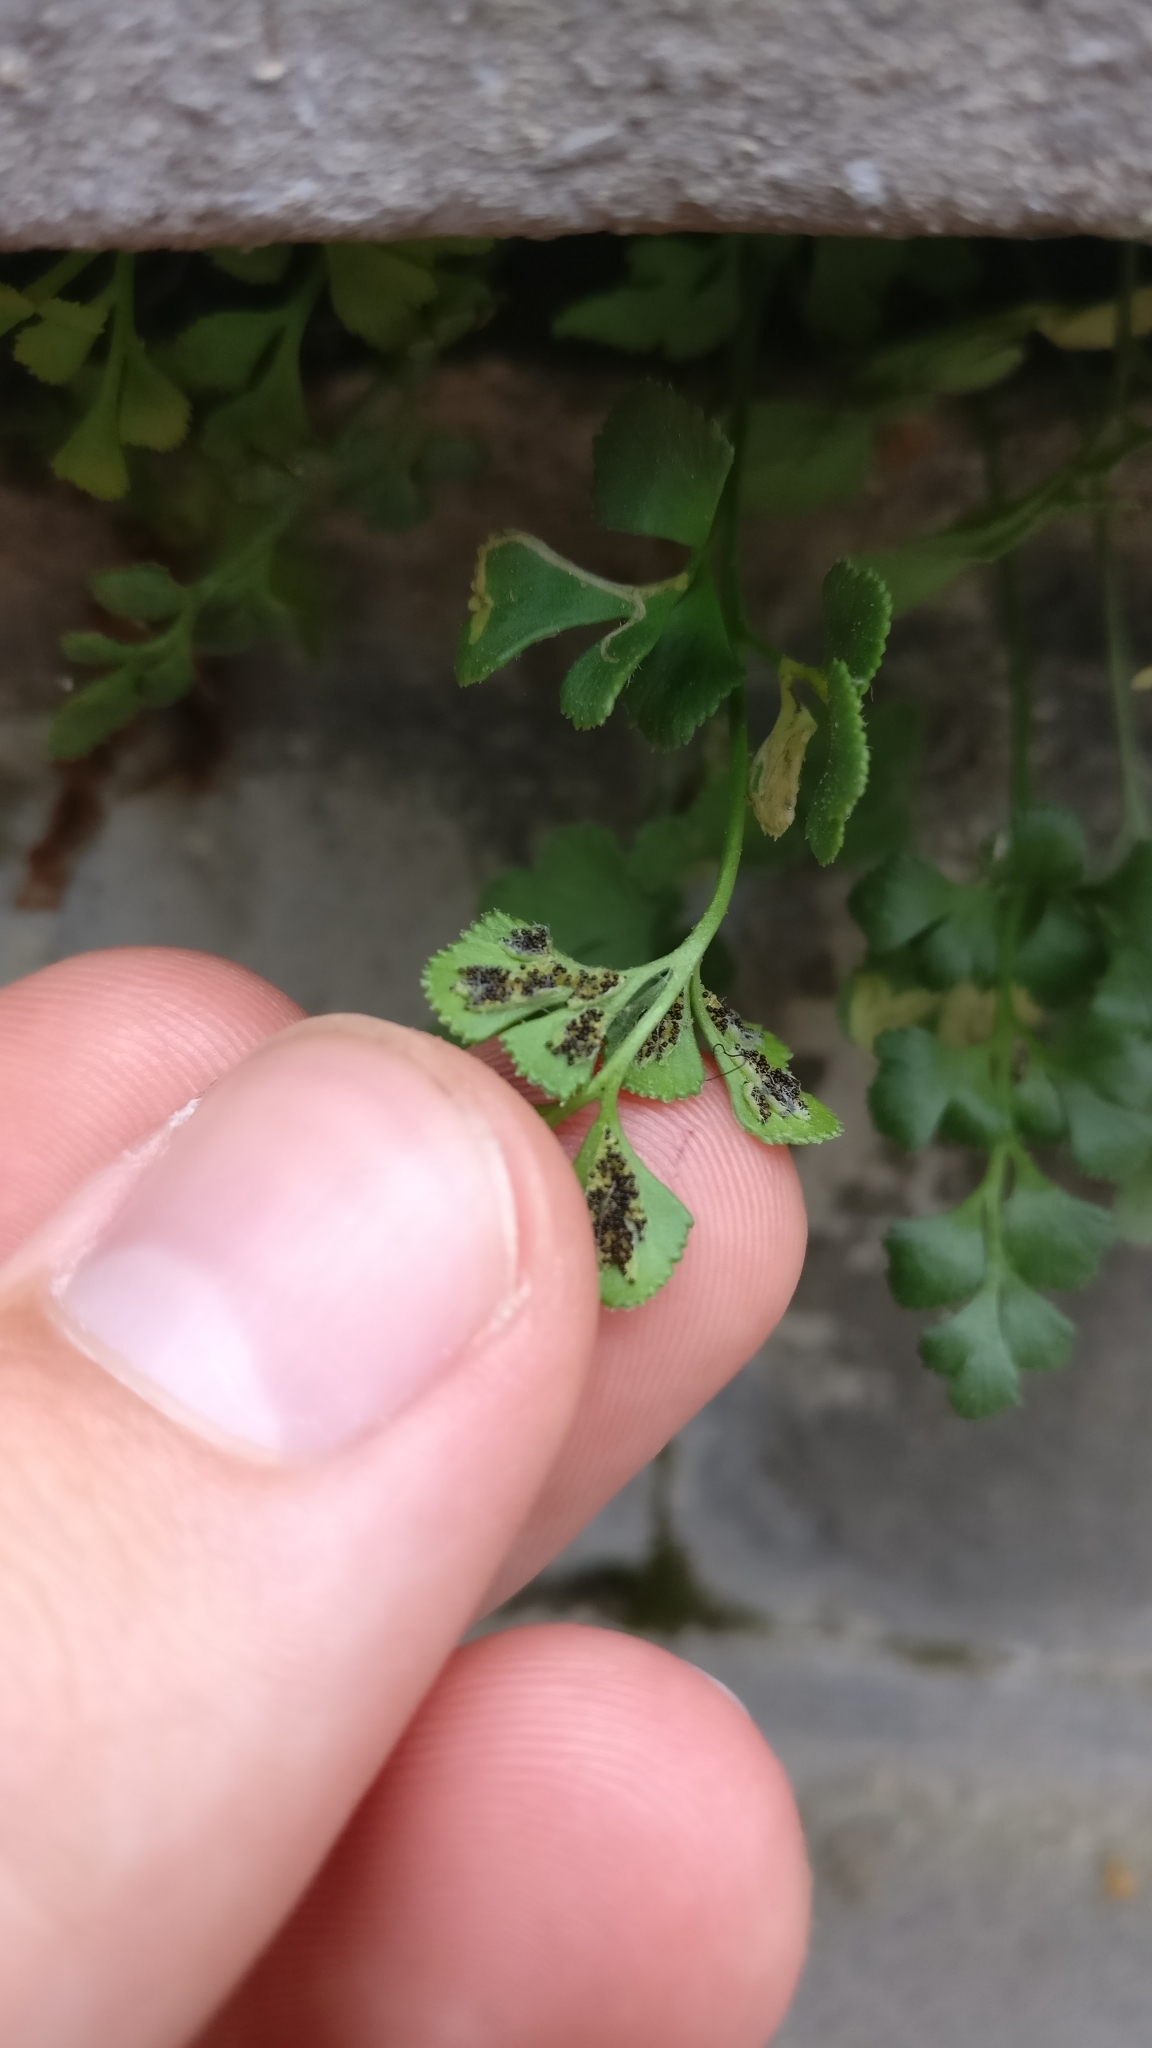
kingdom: Plantae
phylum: Tracheophyta
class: Polypodiopsida
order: Polypodiales
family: Aspleniaceae
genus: Asplenium
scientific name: Asplenium ruta-muraria
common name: Wall-rue
